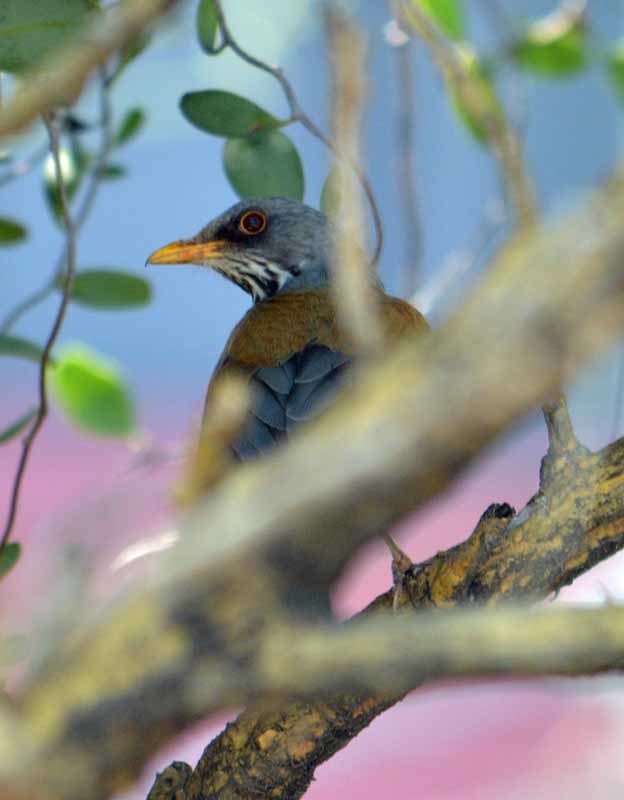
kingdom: Animalia
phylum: Chordata
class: Aves
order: Passeriformes
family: Turdidae
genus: Turdus
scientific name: Turdus rufopalliatus
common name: Rufous-backed robin
